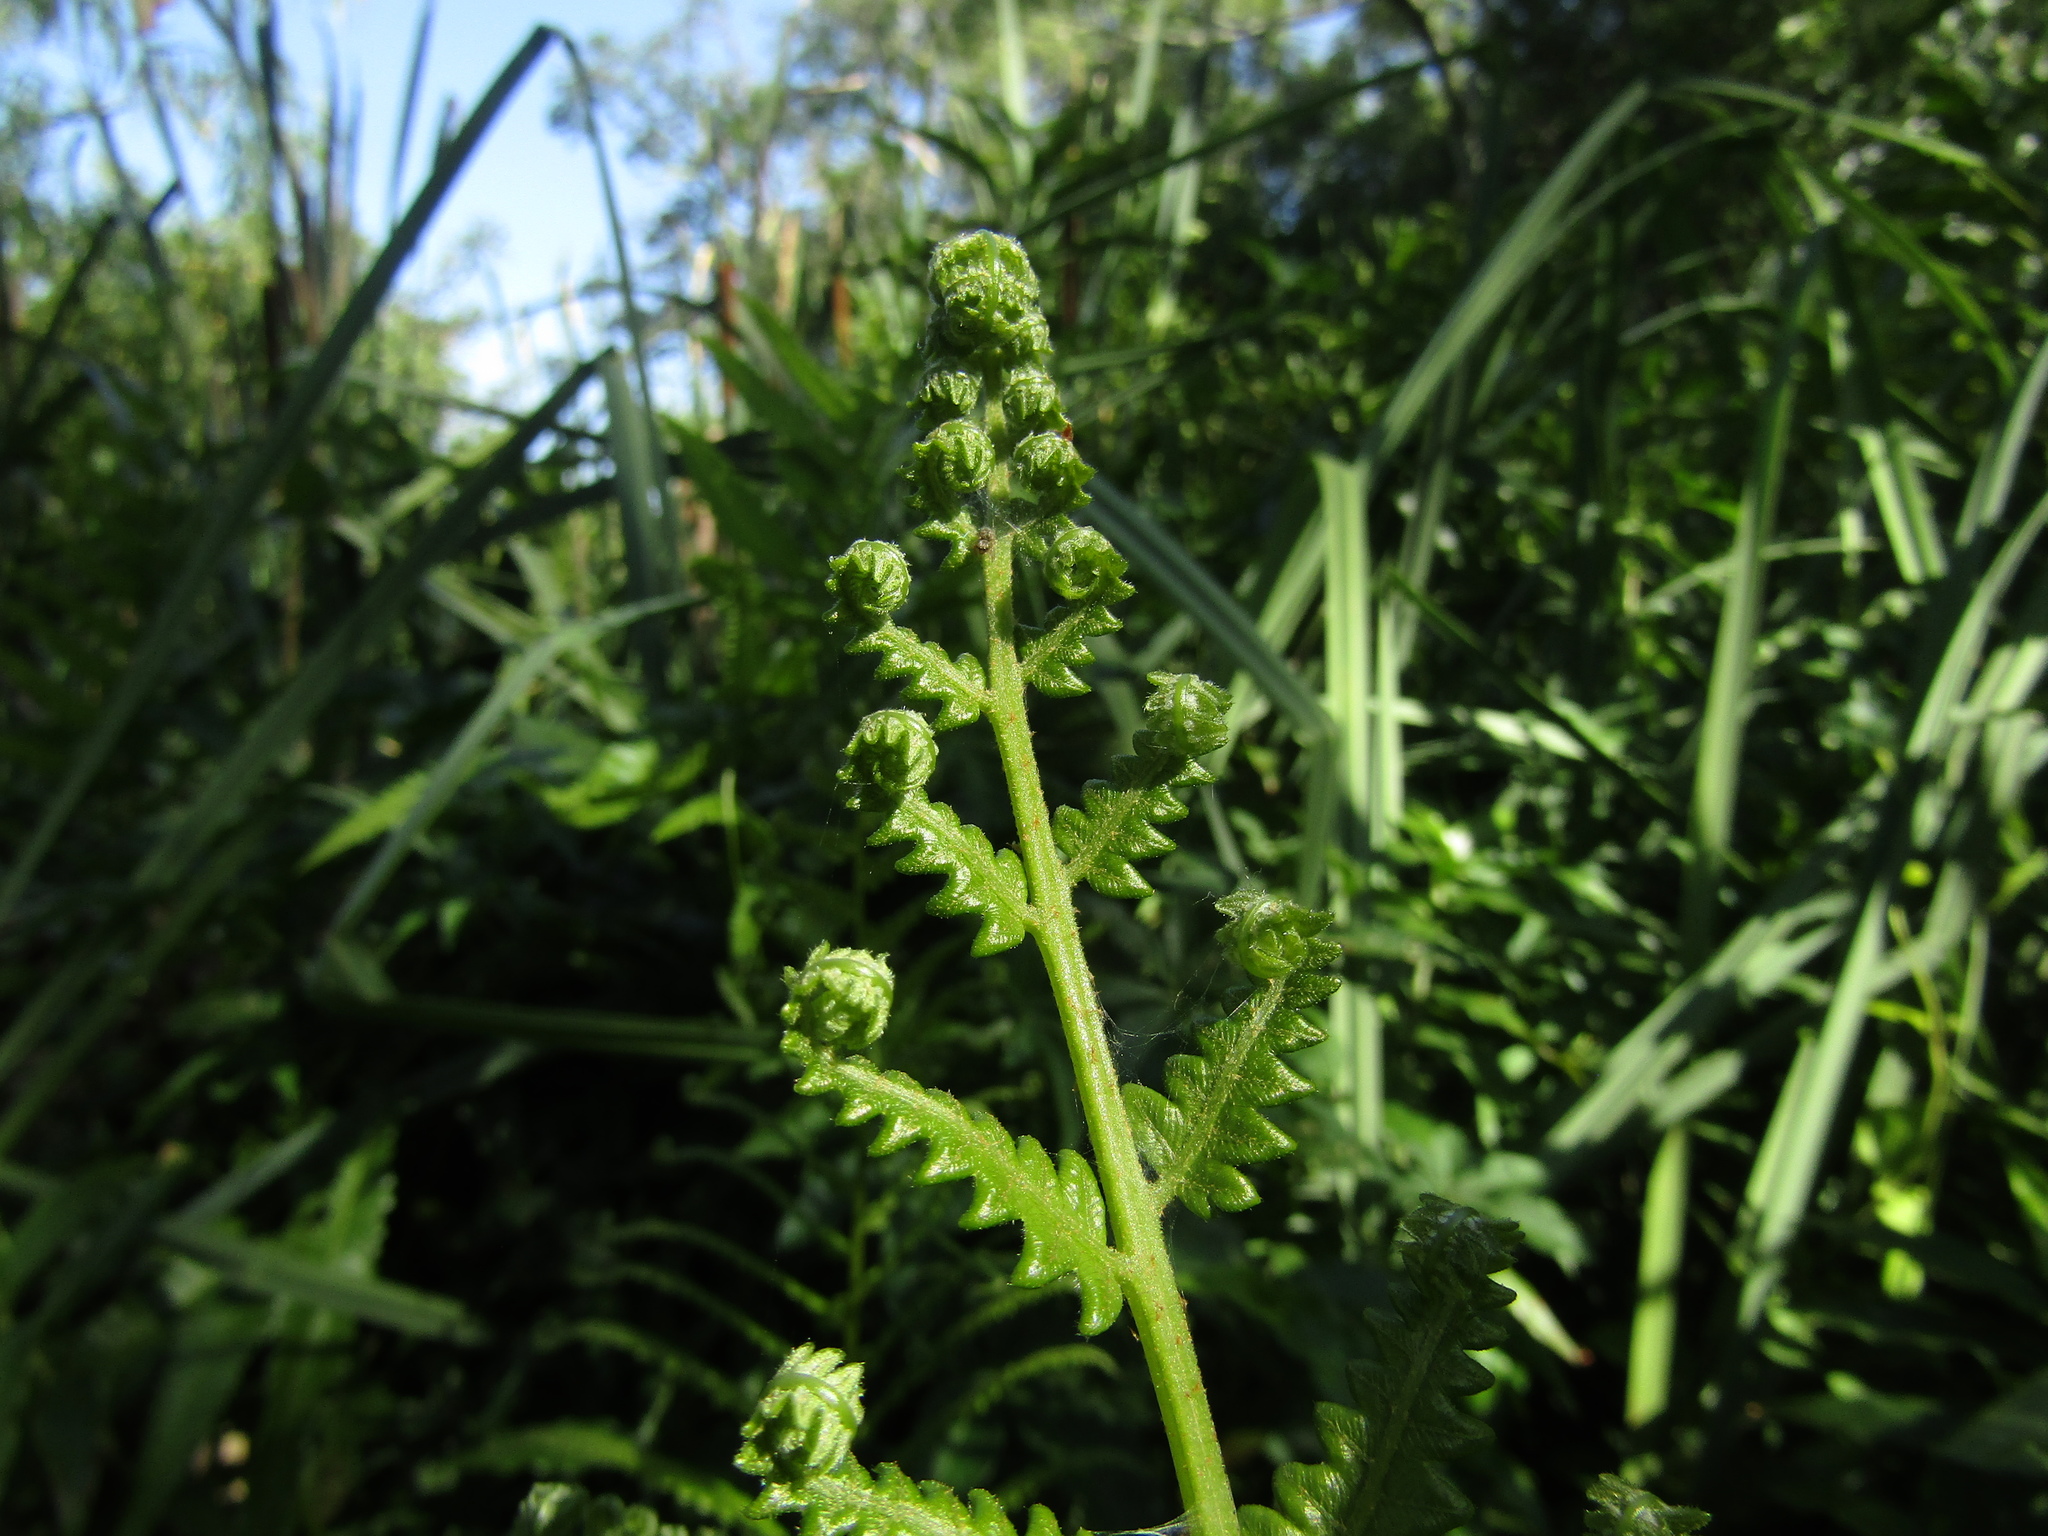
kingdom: Plantae
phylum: Tracheophyta
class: Polypodiopsida
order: Polypodiales
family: Thelypteridaceae
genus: Cyclosorus
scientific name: Cyclosorus interruptus
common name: Neke fern
